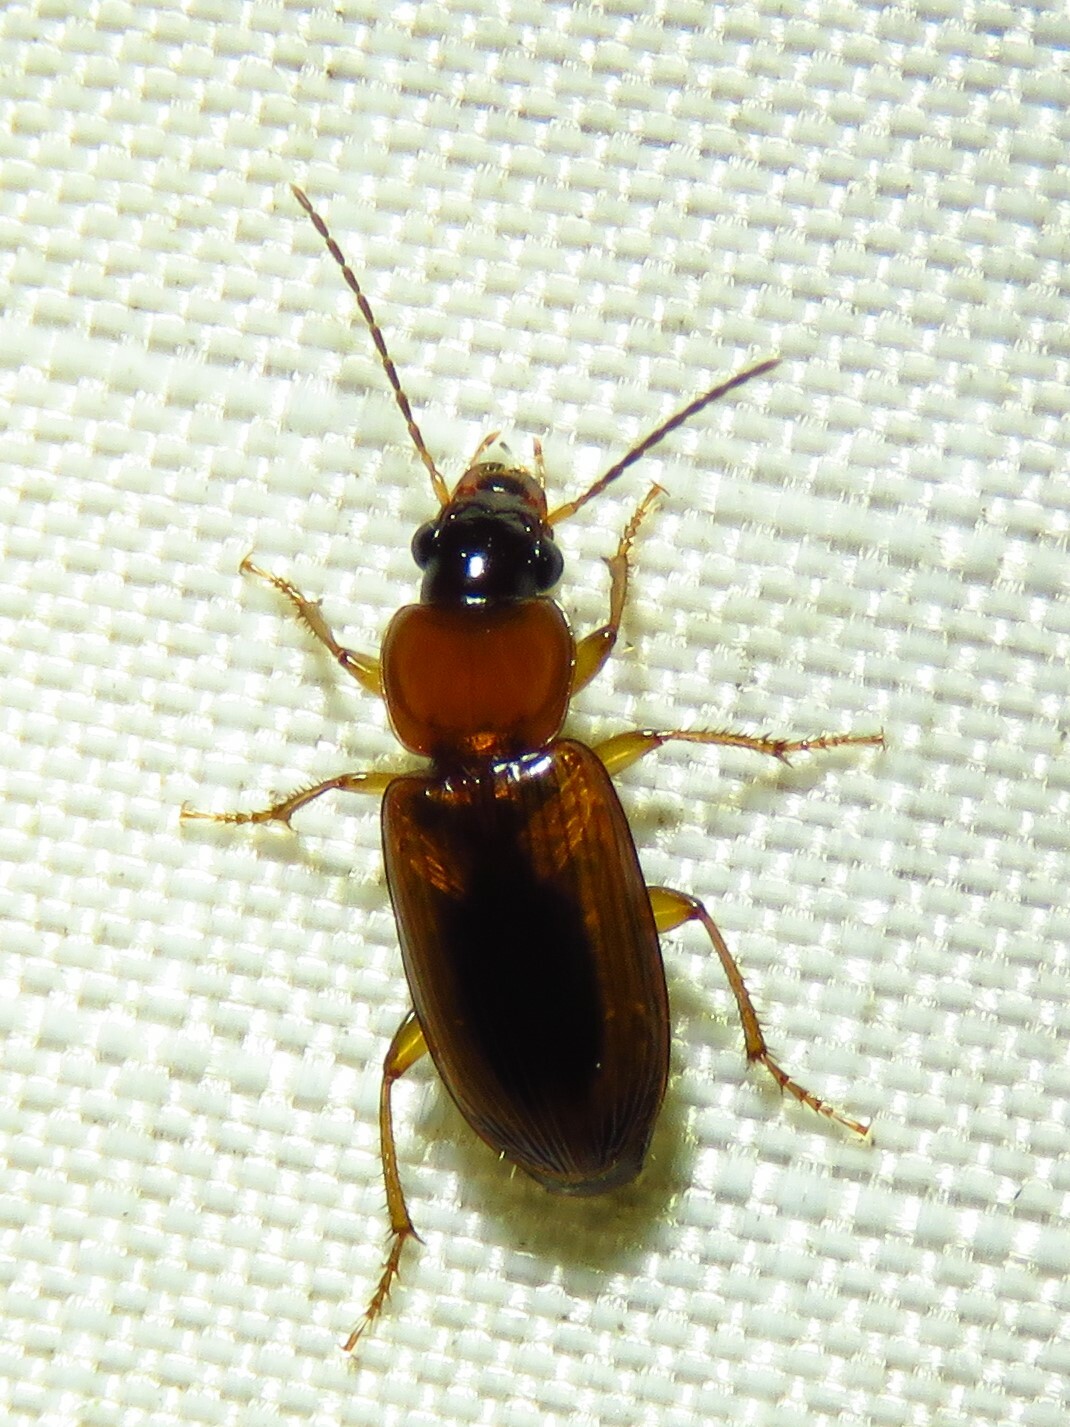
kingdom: Animalia
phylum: Arthropoda
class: Insecta
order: Coleoptera
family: Carabidae
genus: Stenolophus
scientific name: Stenolophus dissimilis
